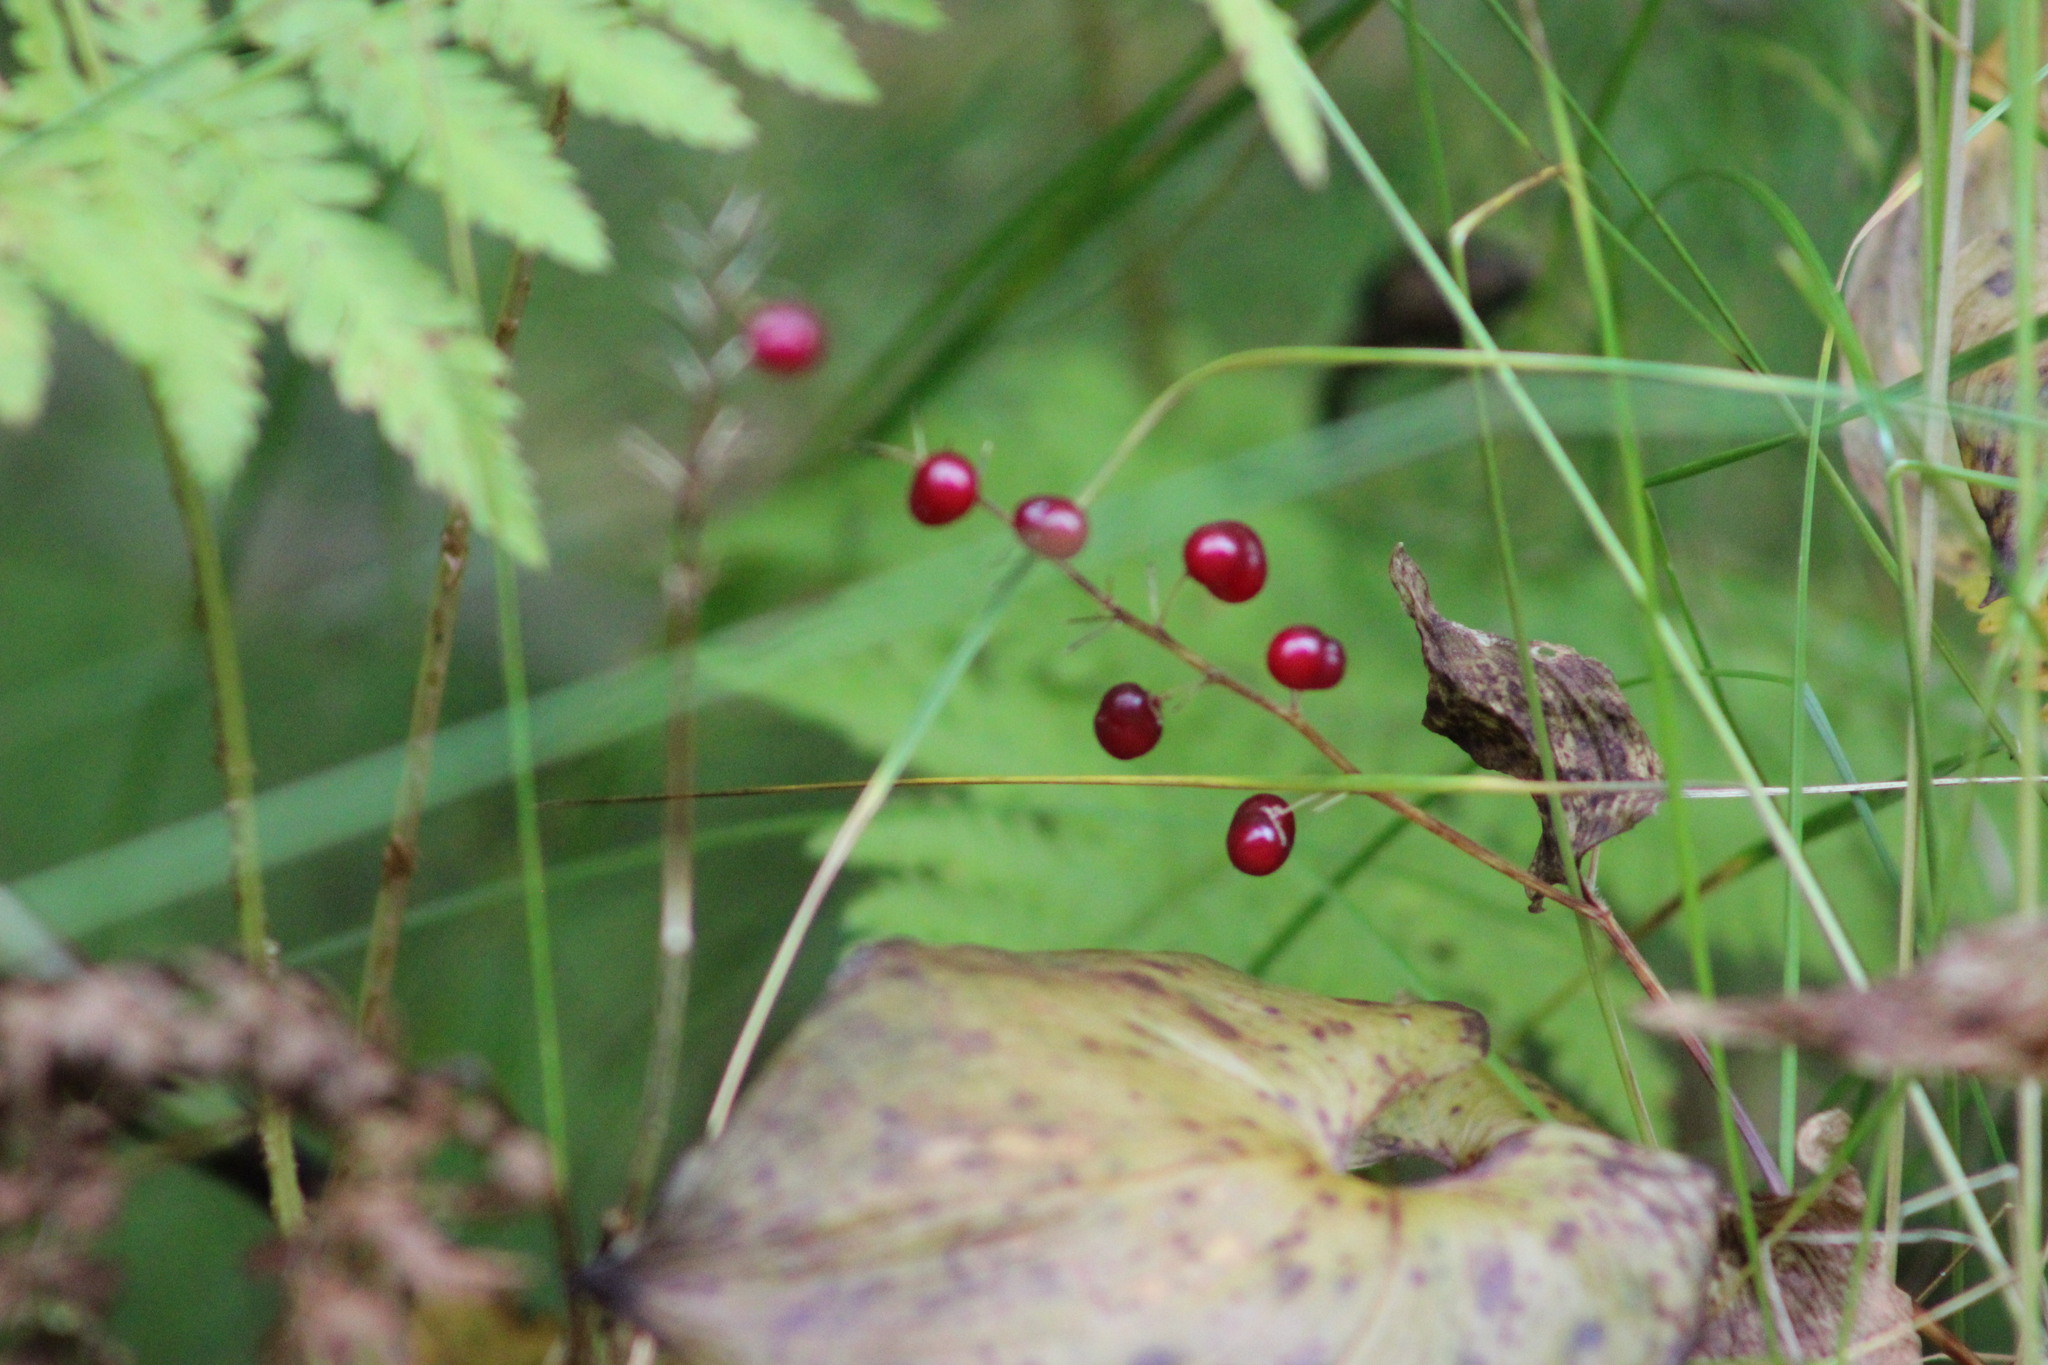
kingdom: Plantae
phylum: Tracheophyta
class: Liliopsida
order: Asparagales
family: Asparagaceae
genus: Maianthemum
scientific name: Maianthemum bifolium
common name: May lily
